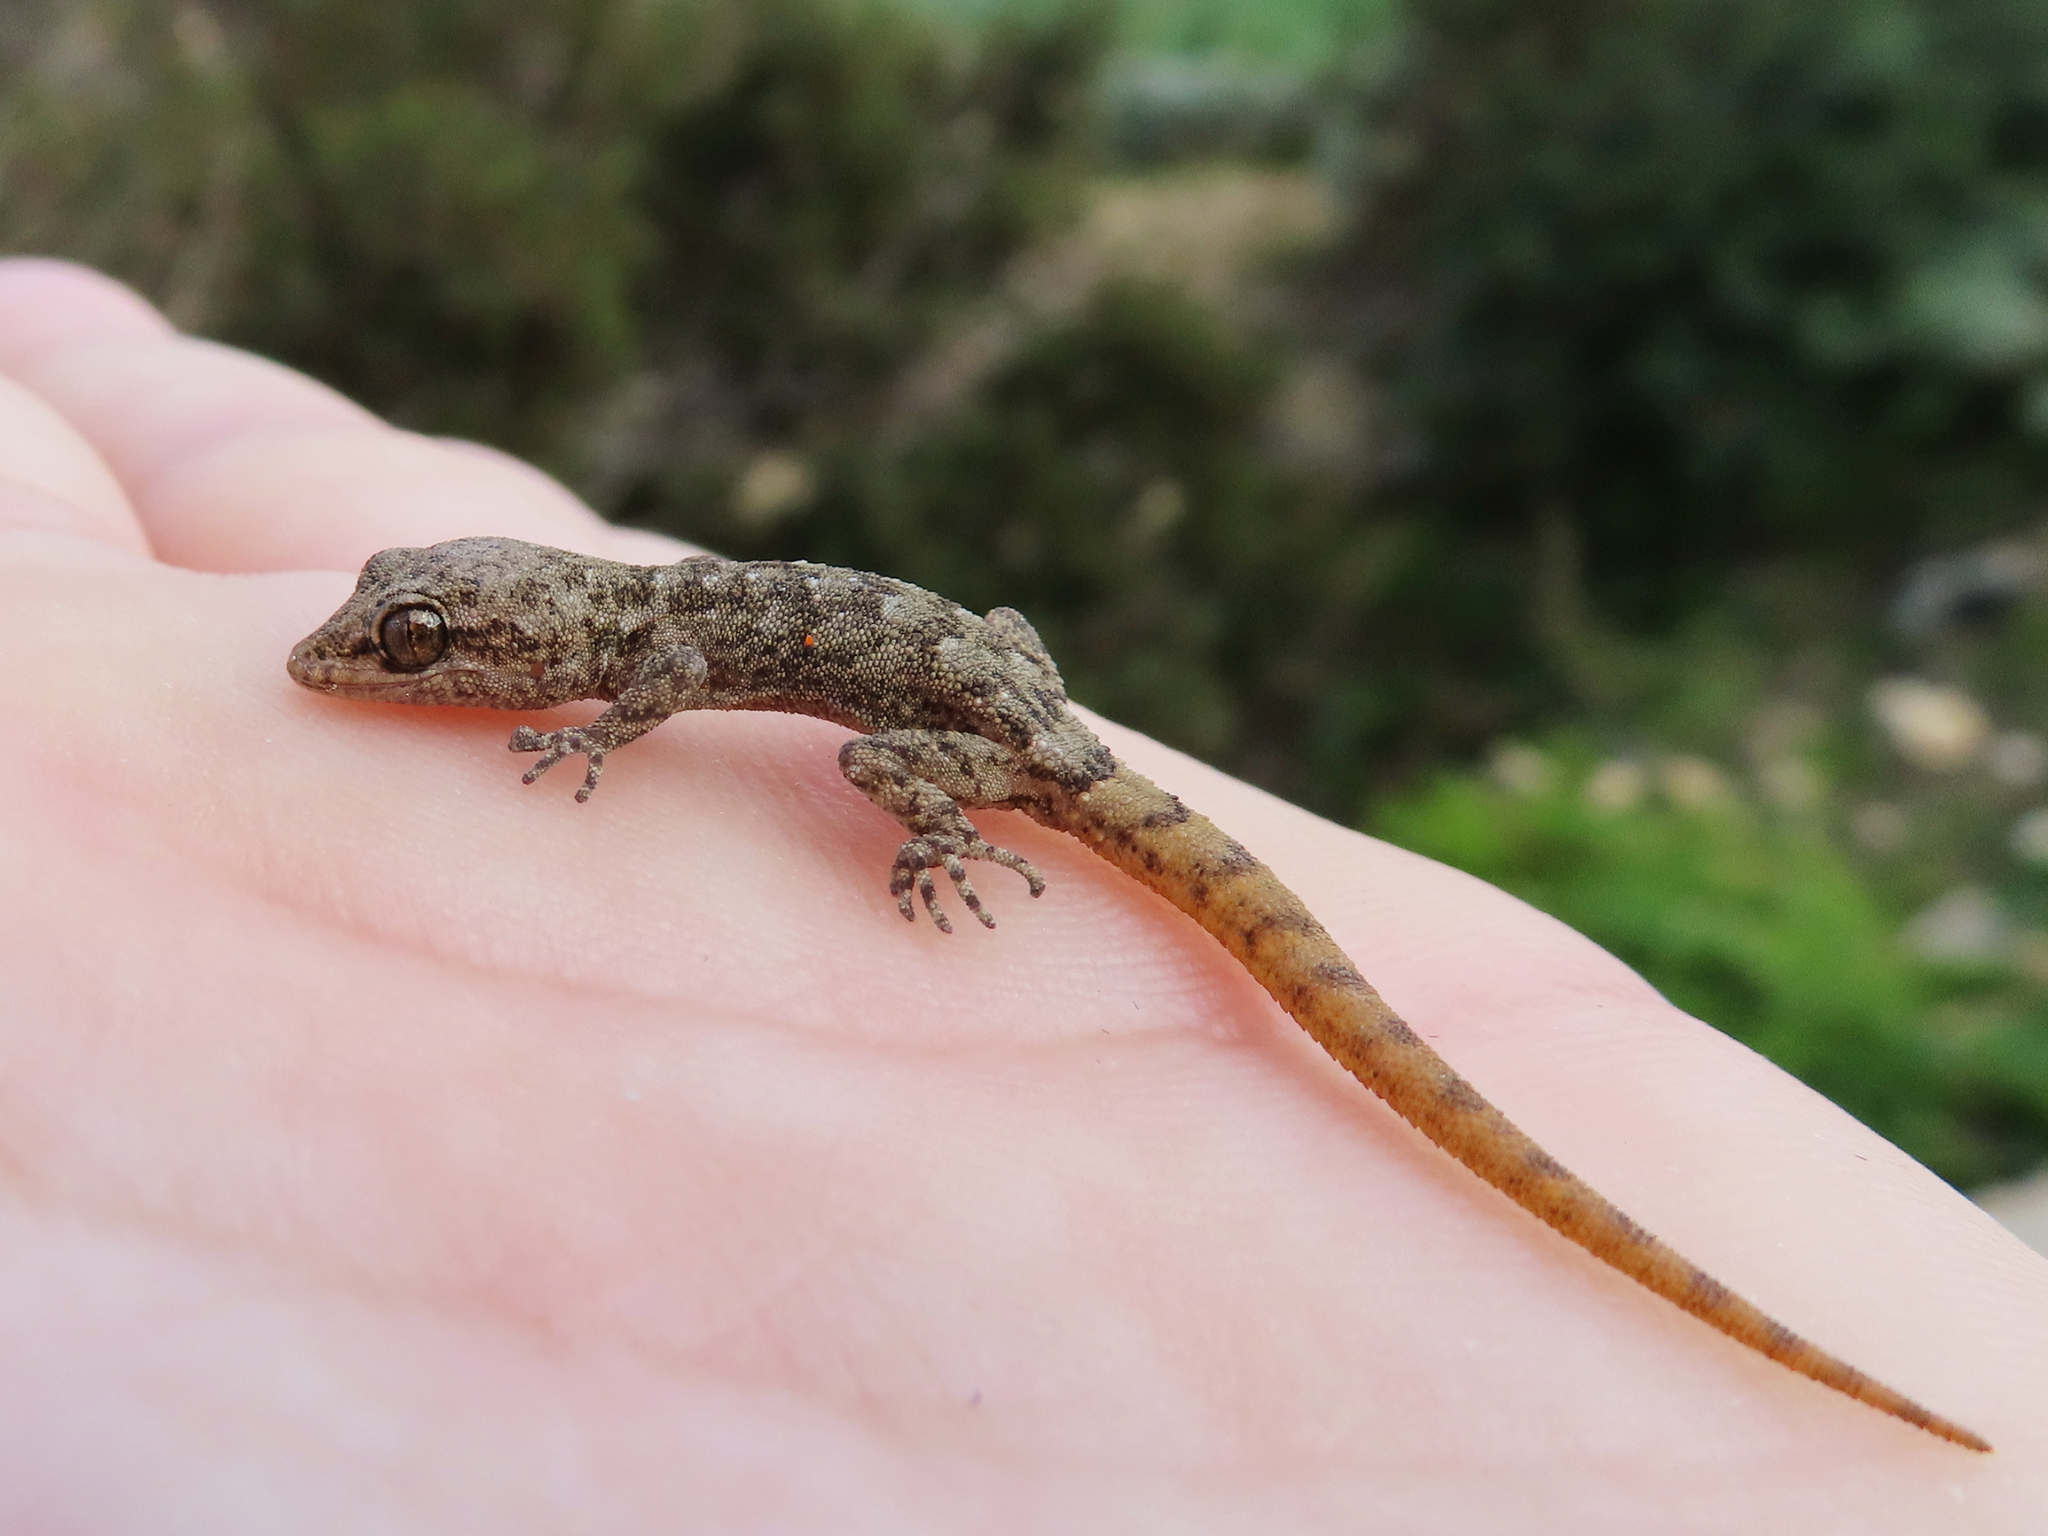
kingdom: Animalia
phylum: Chordata
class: Squamata
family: Gekkonidae
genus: Mediodactylus
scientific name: Mediodactylus oertzeni
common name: Mediterranean thin-toed gecko
